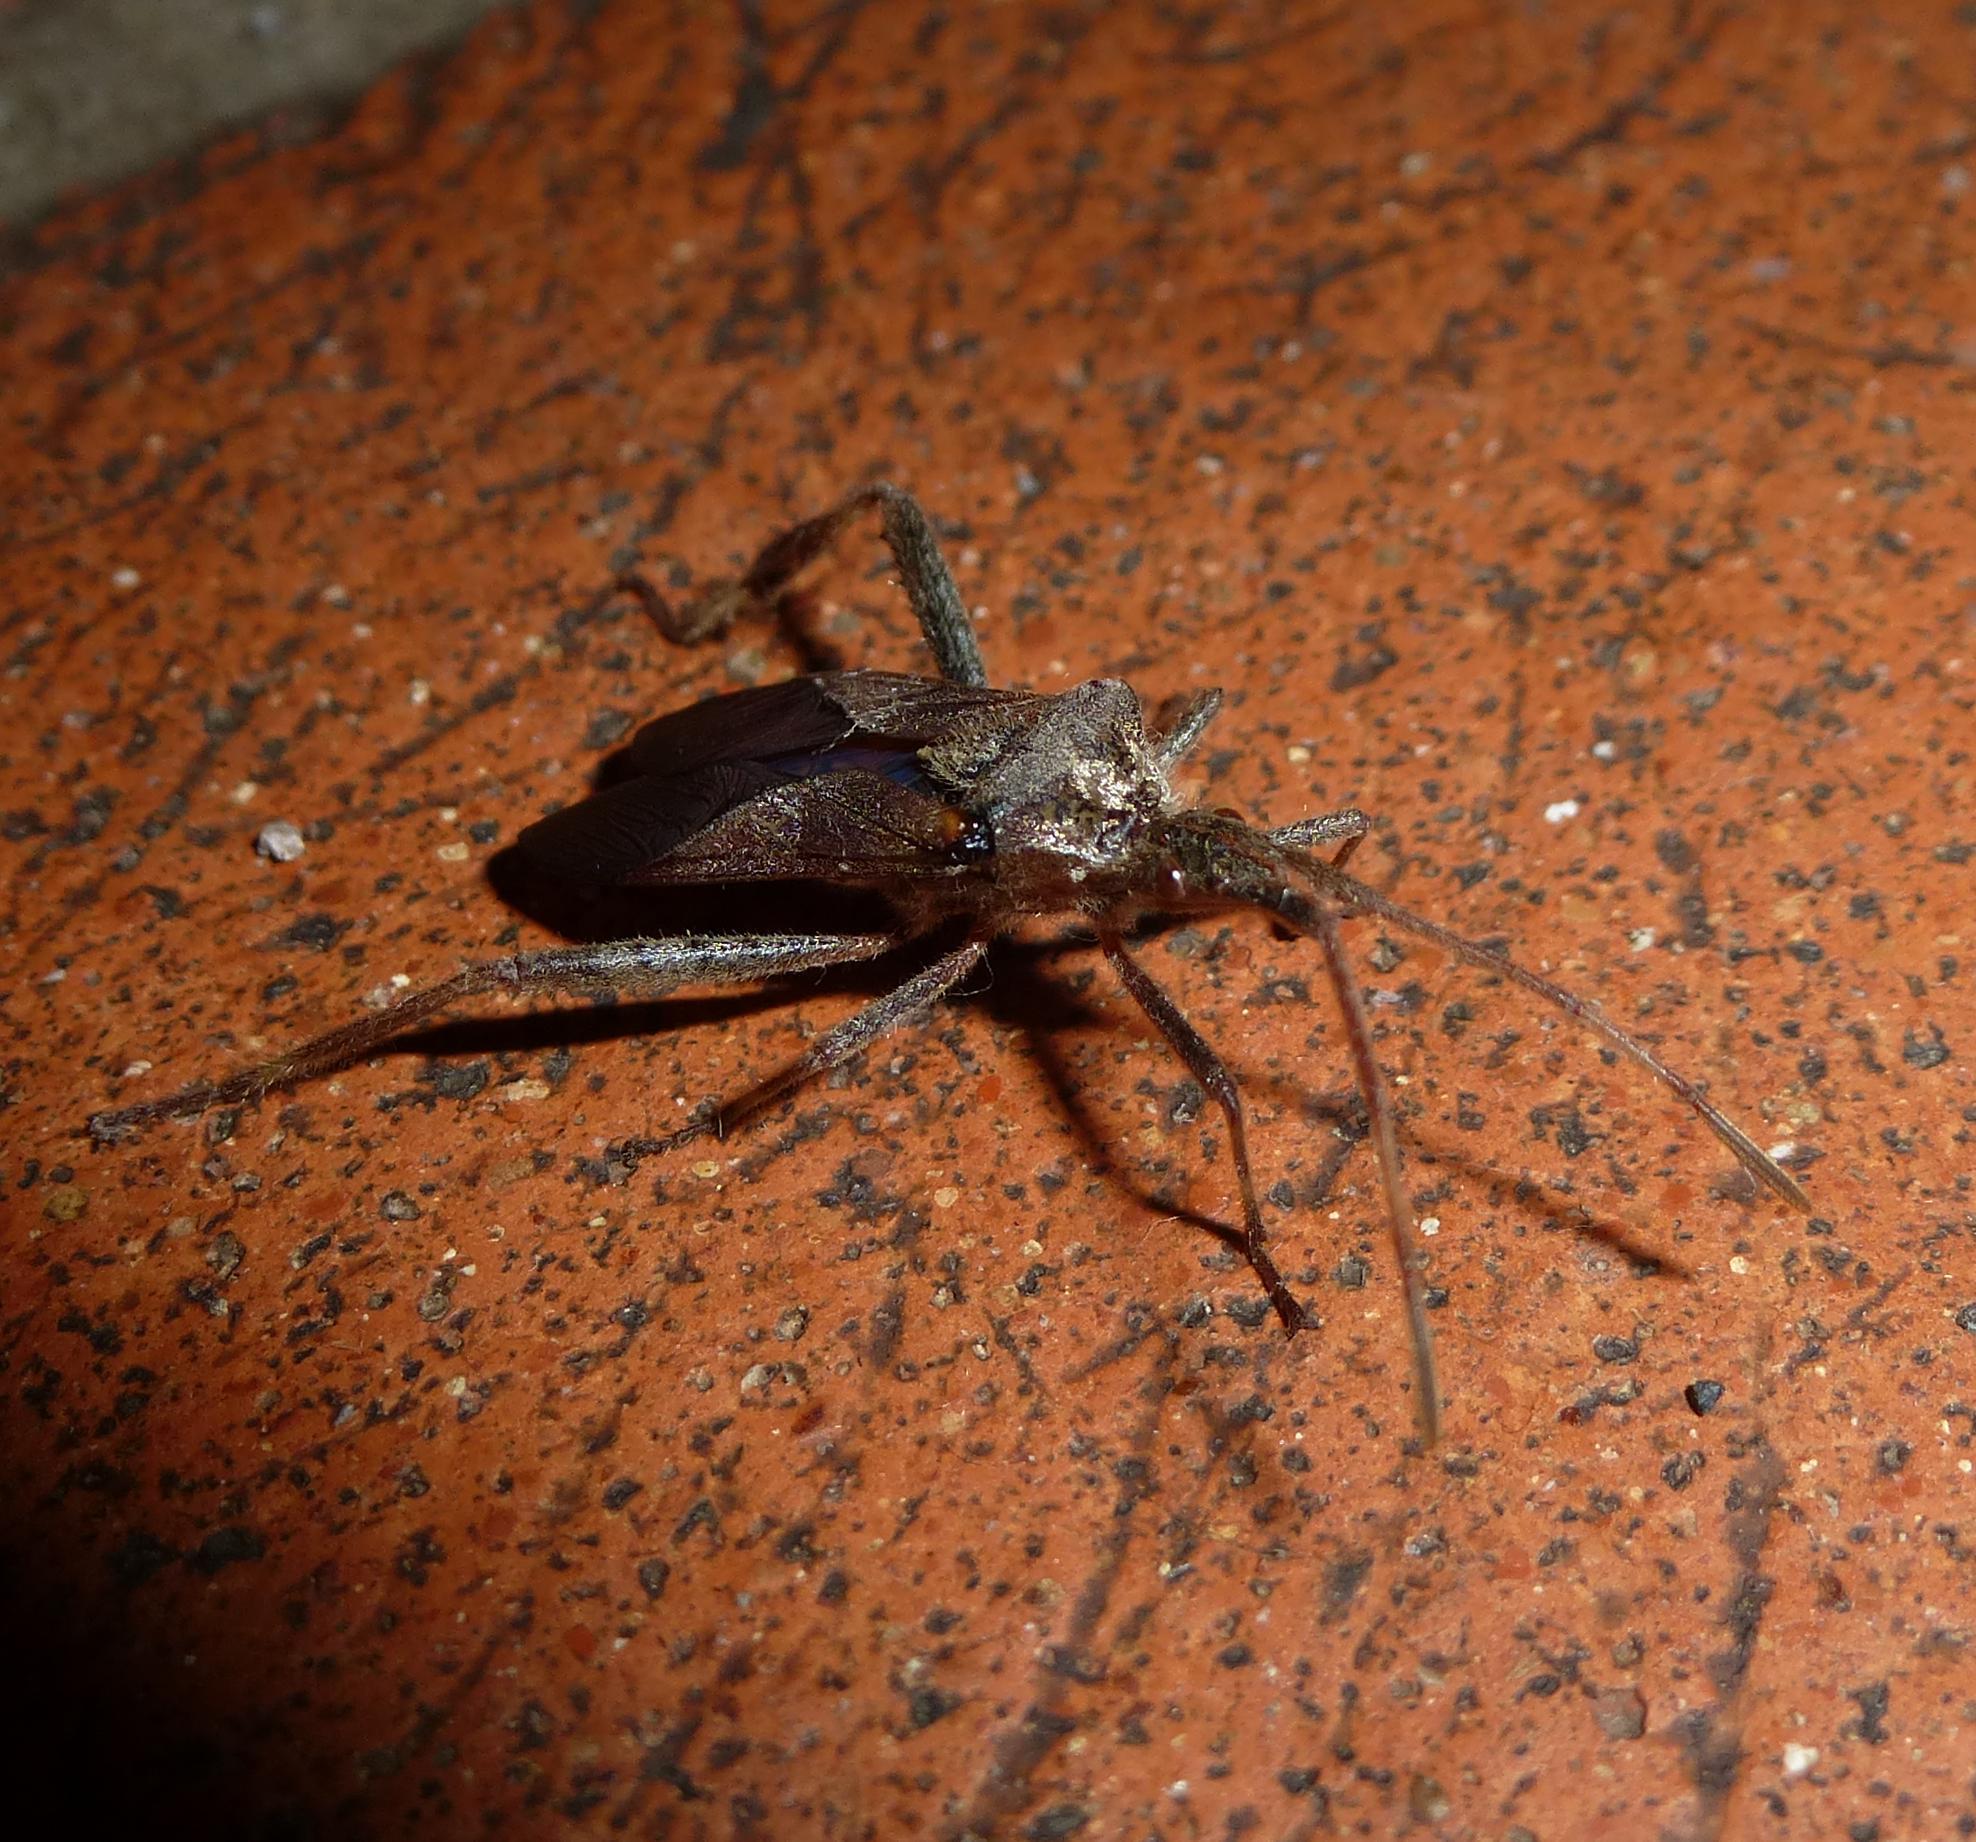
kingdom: Animalia
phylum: Arthropoda
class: Insecta
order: Hemiptera
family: Coreidae
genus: Leptoglossus
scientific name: Leptoglossus occidentalis
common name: Western conifer-seed bug
